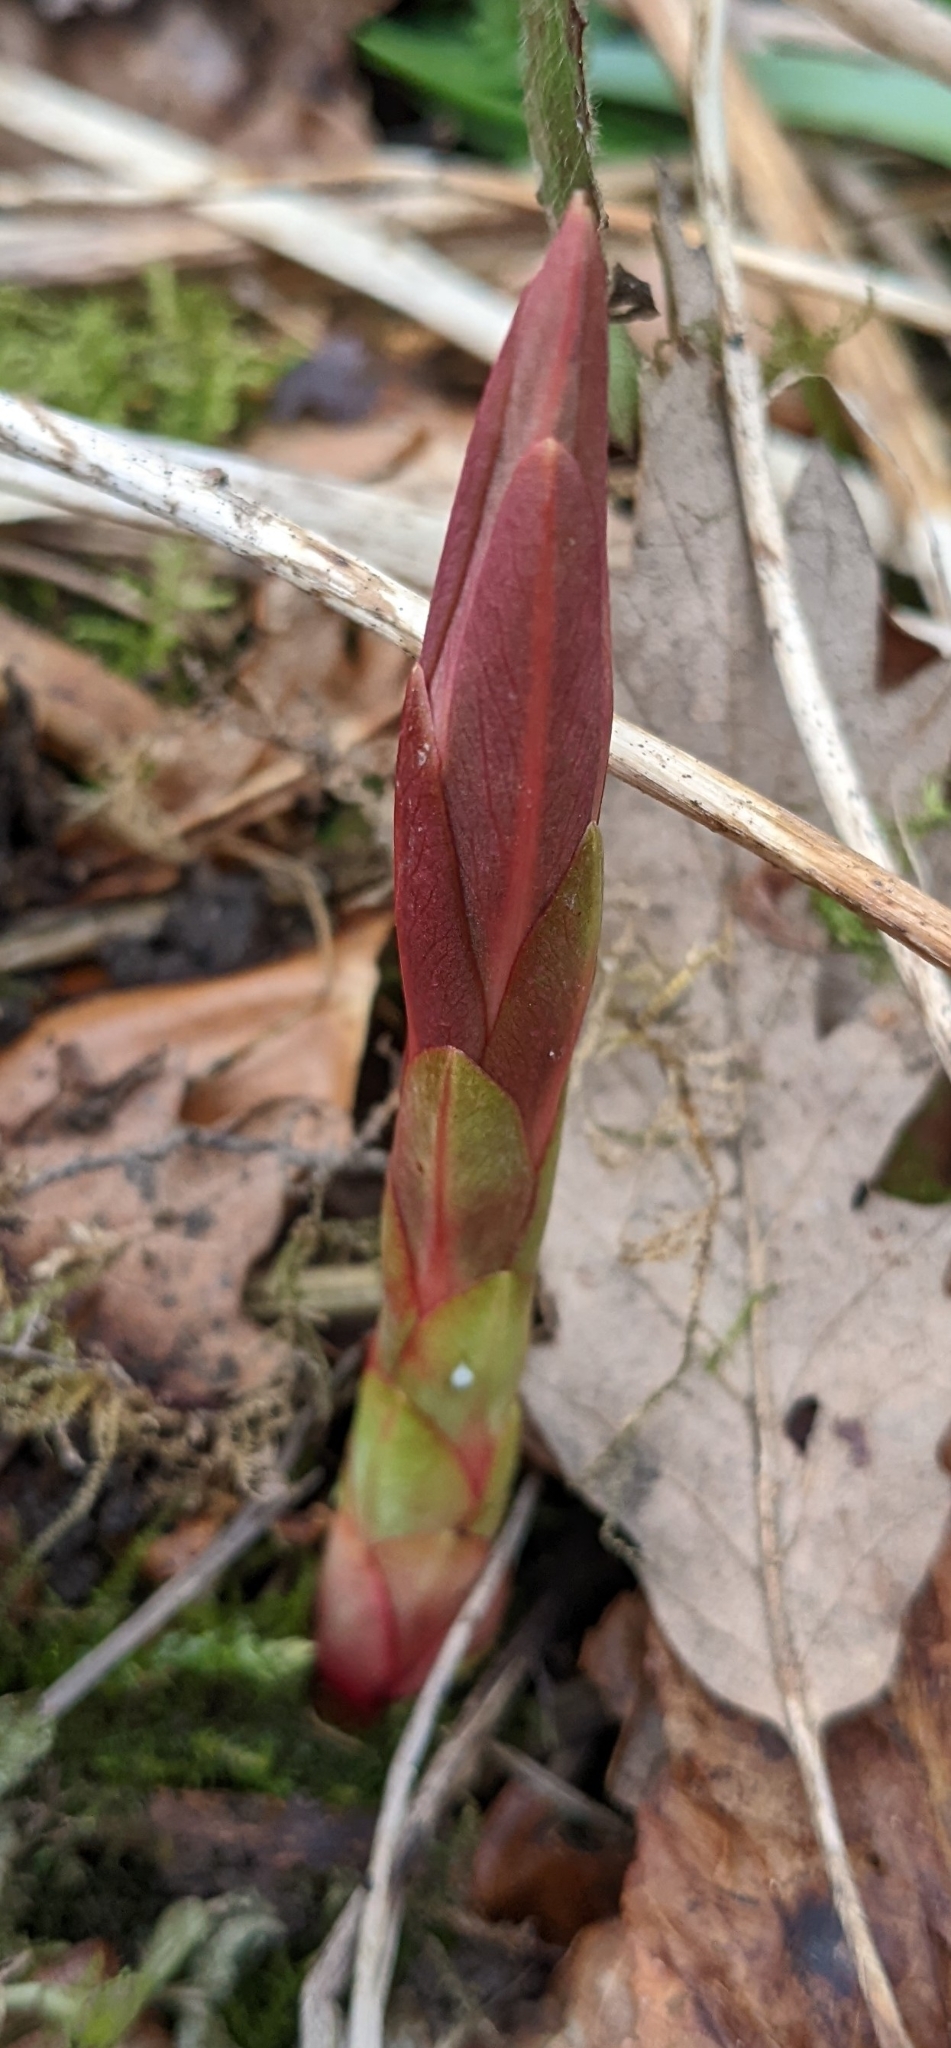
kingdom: Plantae
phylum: Tracheophyta
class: Magnoliopsida
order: Caryophyllales
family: Polygonaceae
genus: Reynoutria
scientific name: Reynoutria japonica
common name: Japanese knotweed
